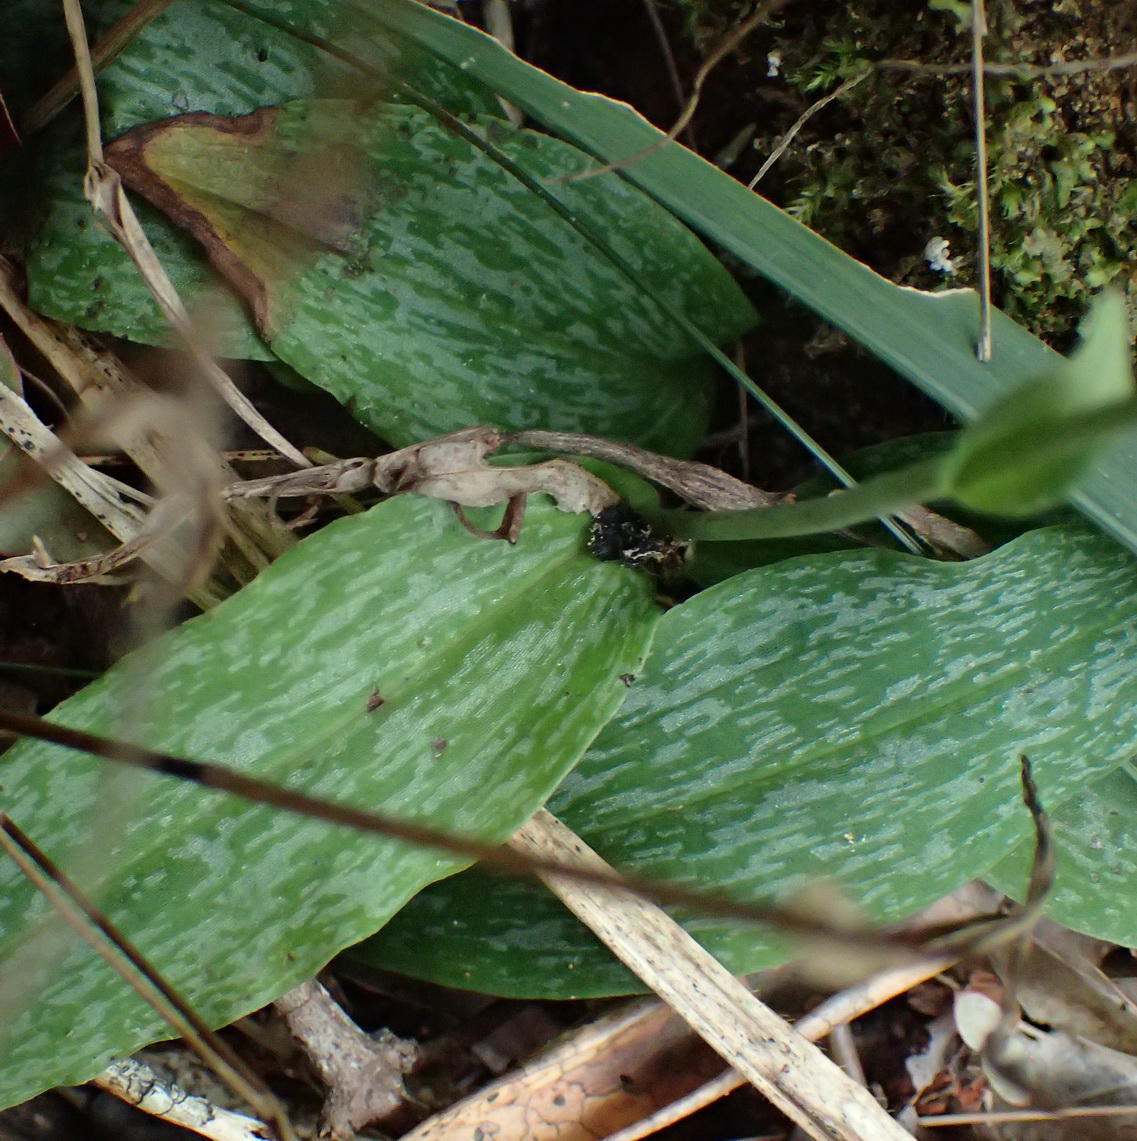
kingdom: Plantae
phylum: Tracheophyta
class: Liliopsida
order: Asparagales
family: Orchidaceae
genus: Habenaria
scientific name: Habenaria arenaria
